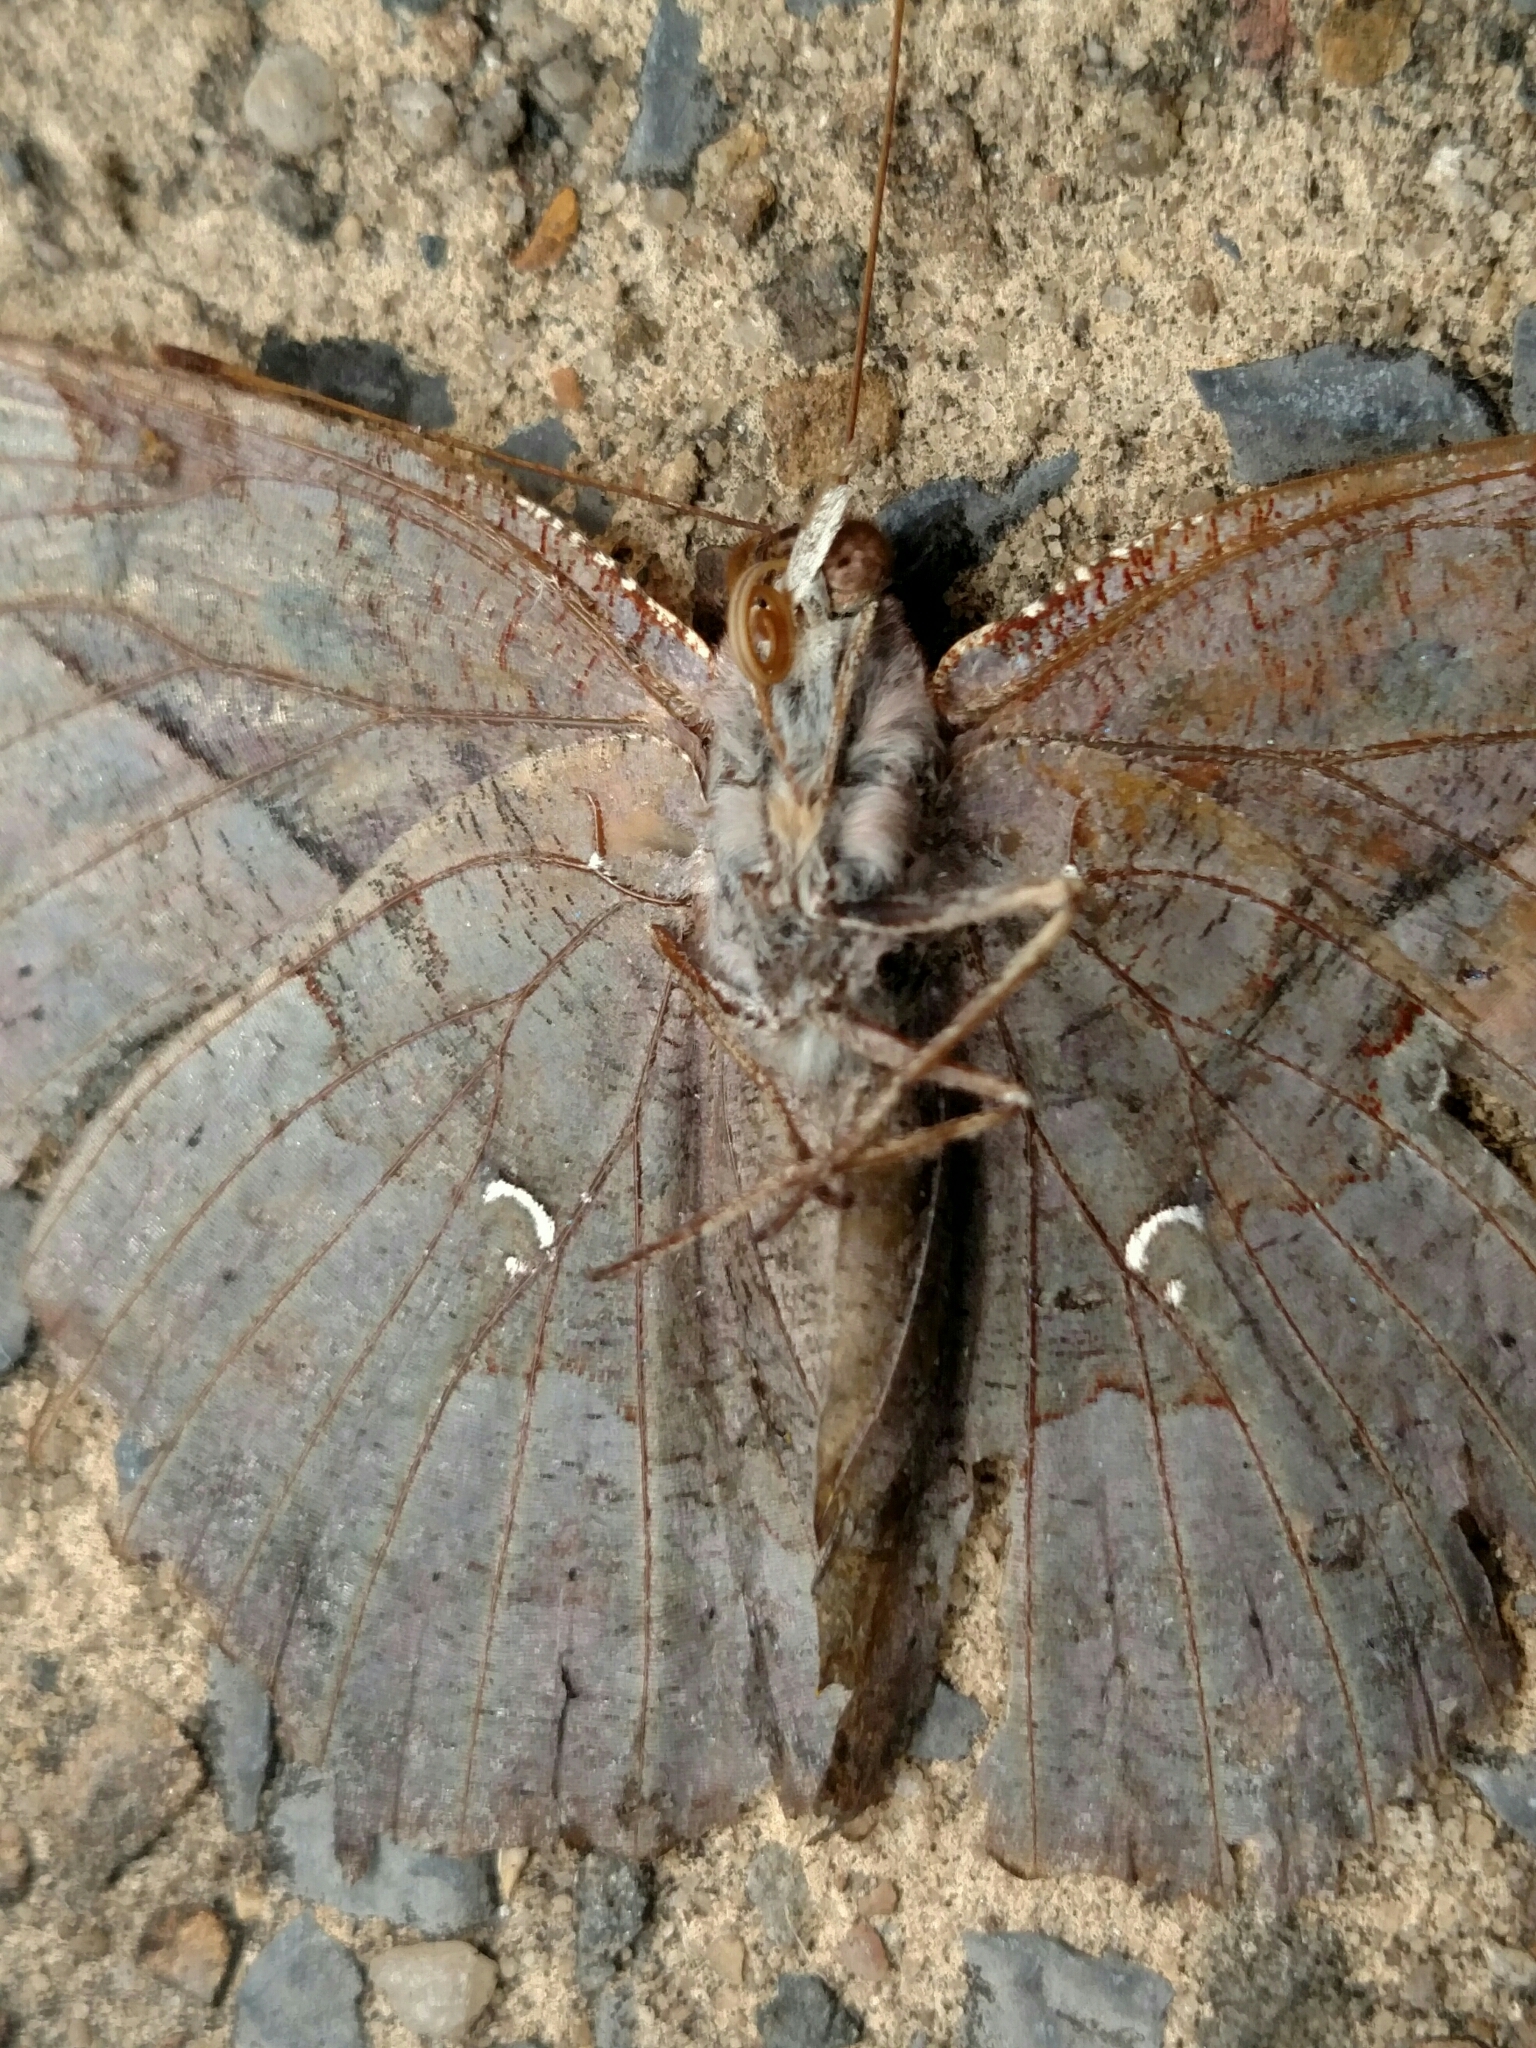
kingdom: Animalia
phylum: Arthropoda
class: Insecta
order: Lepidoptera
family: Nymphalidae
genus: Polygonia
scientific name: Polygonia interrogationis
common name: Question mark
